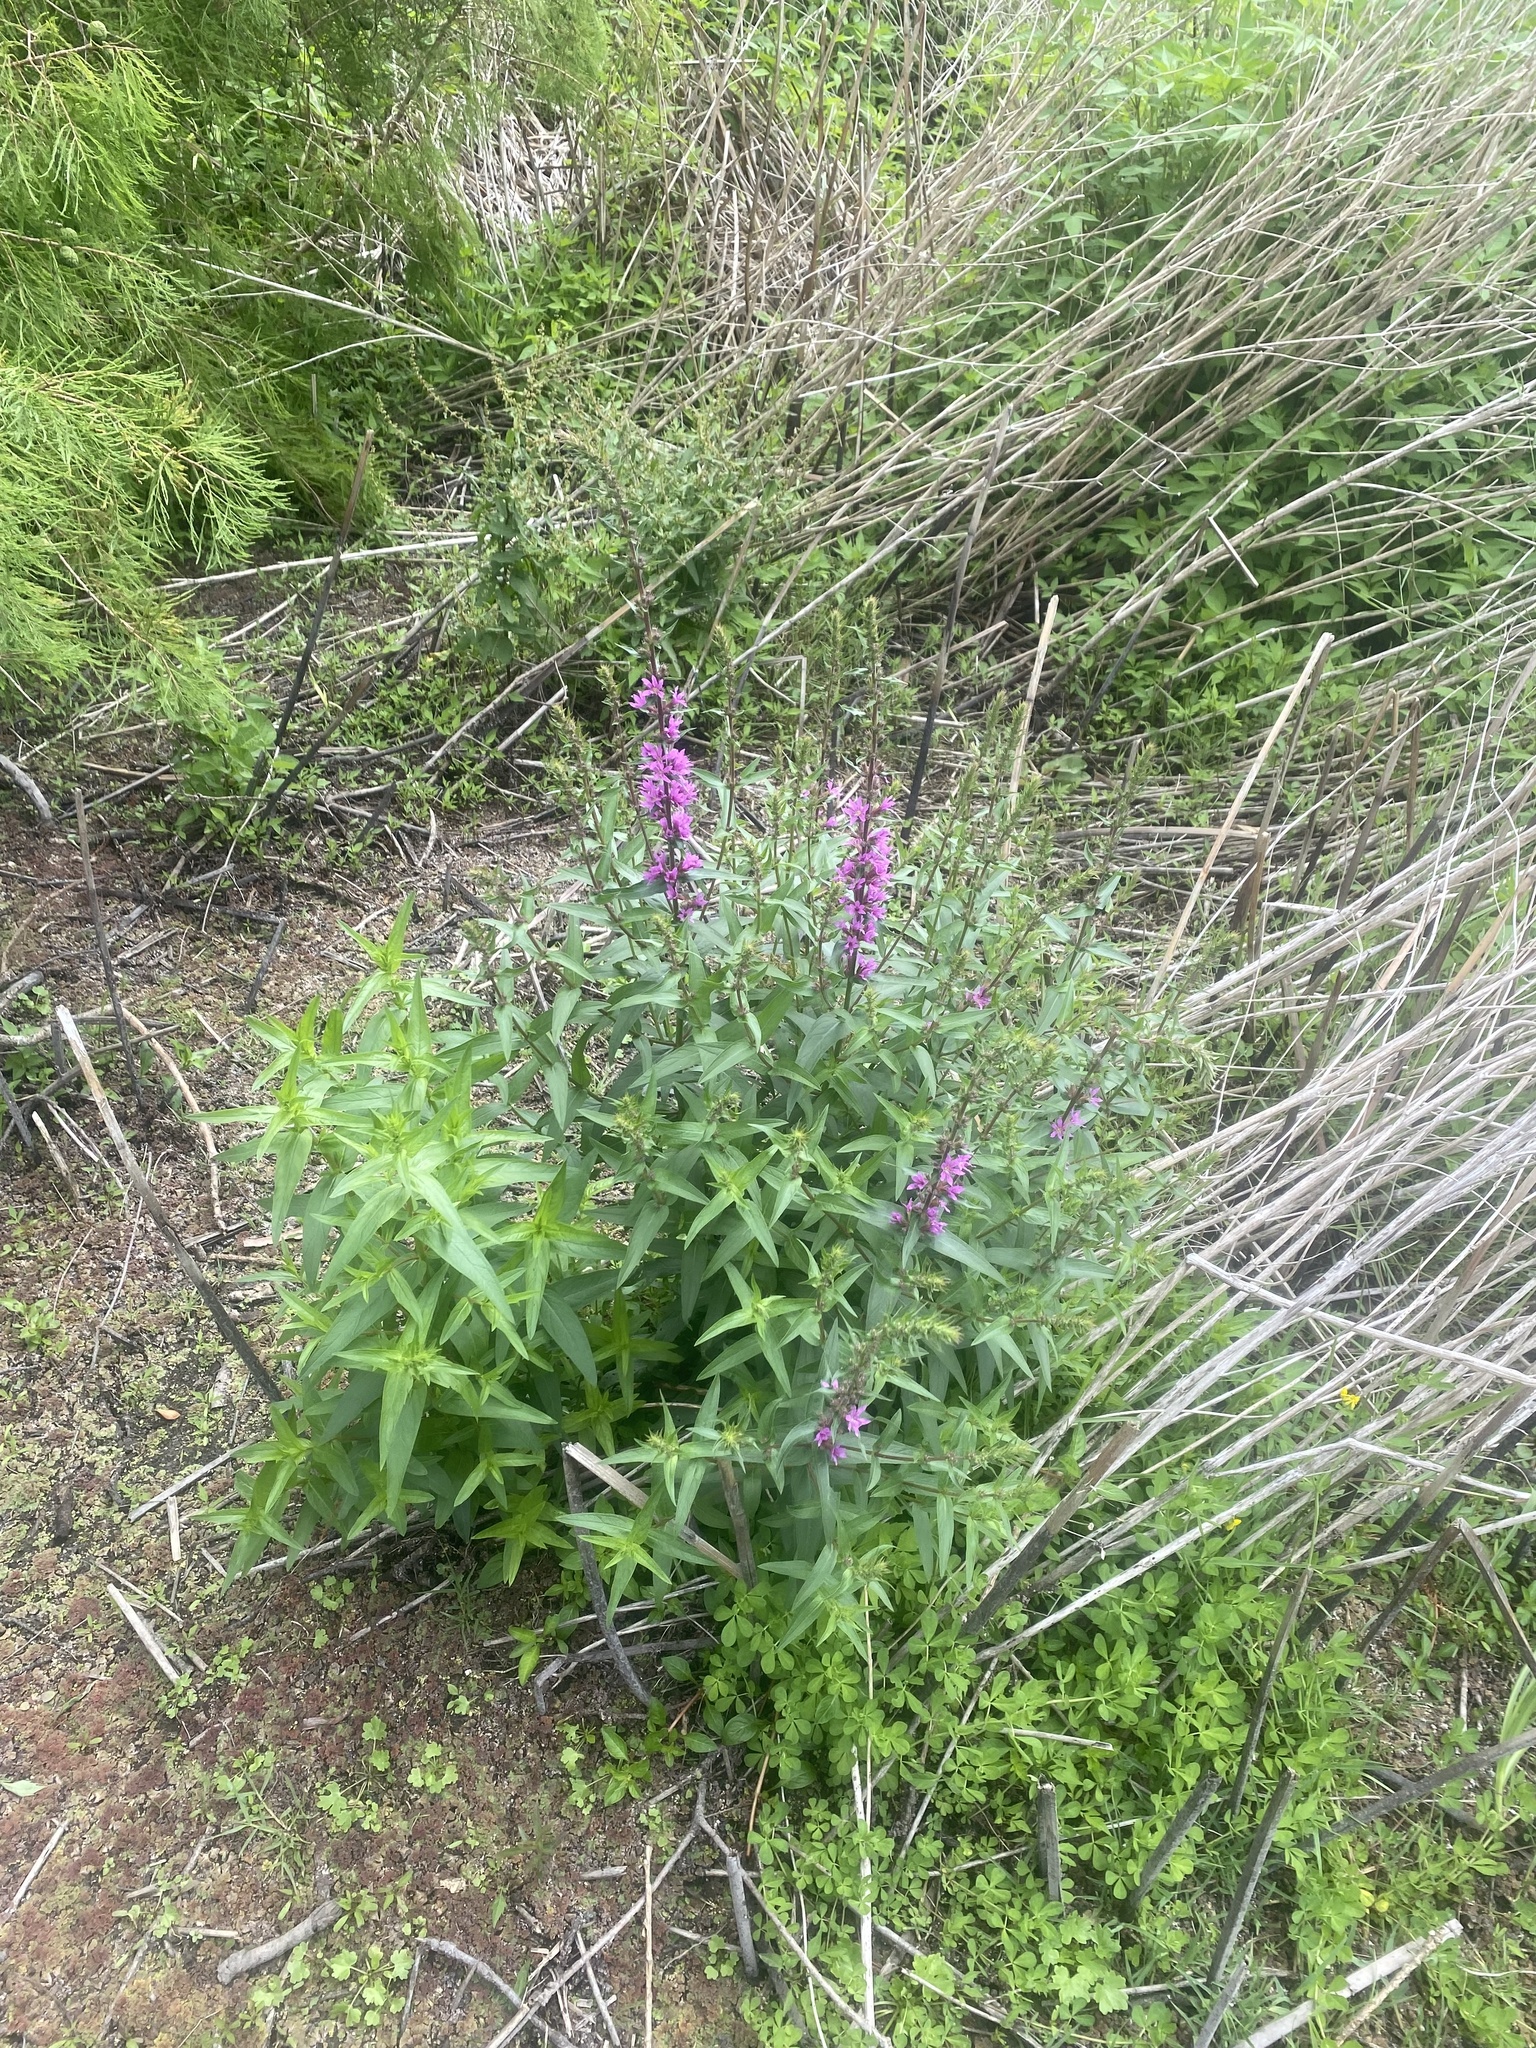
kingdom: Plantae
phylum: Tracheophyta
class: Magnoliopsida
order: Myrtales
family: Lythraceae
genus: Lythrum
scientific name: Lythrum salicaria
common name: Purple loosestrife
